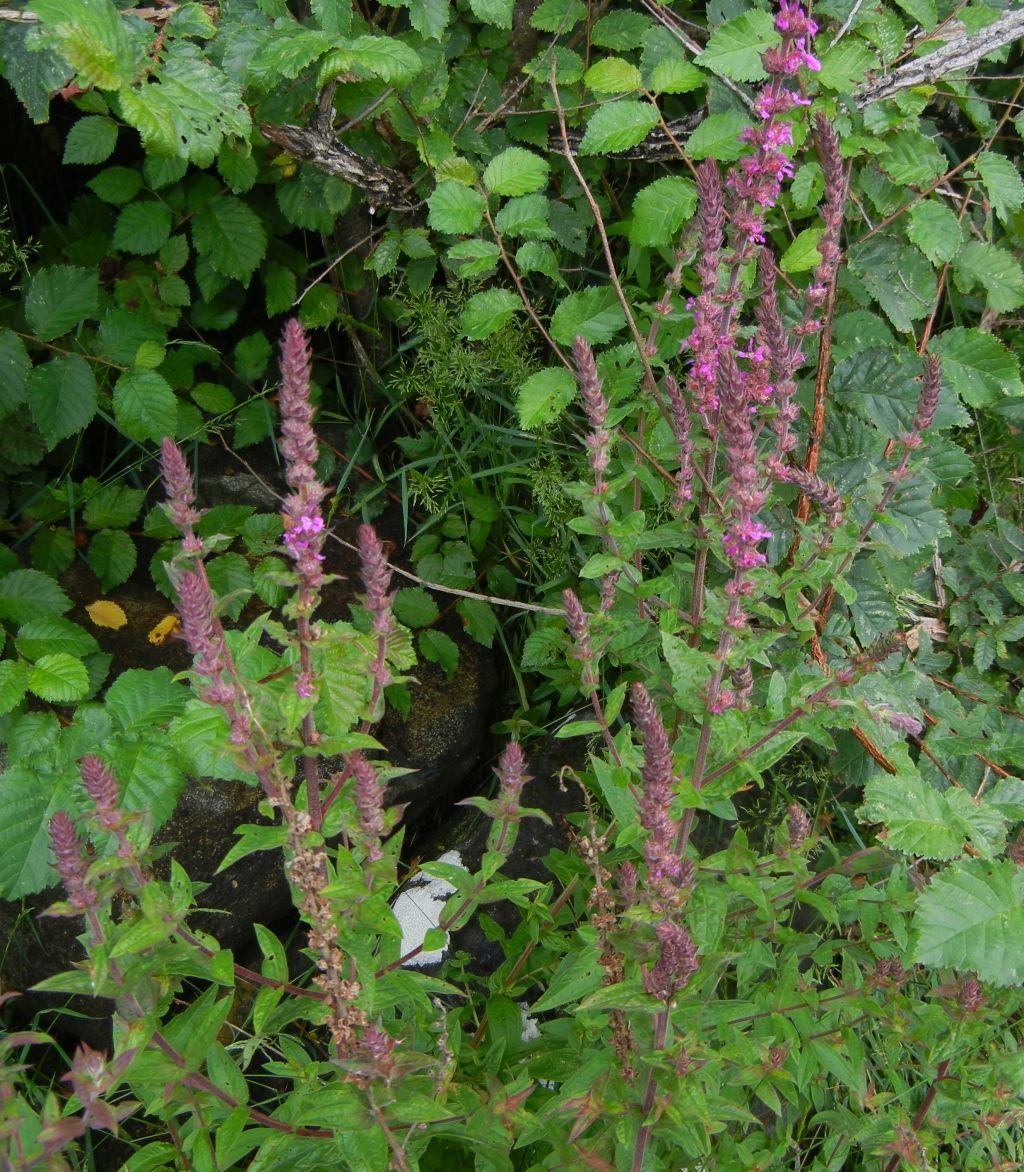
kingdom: Plantae
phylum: Tracheophyta
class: Magnoliopsida
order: Myrtales
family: Lythraceae
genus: Lythrum
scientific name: Lythrum salicaria
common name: Purple loosestrife
